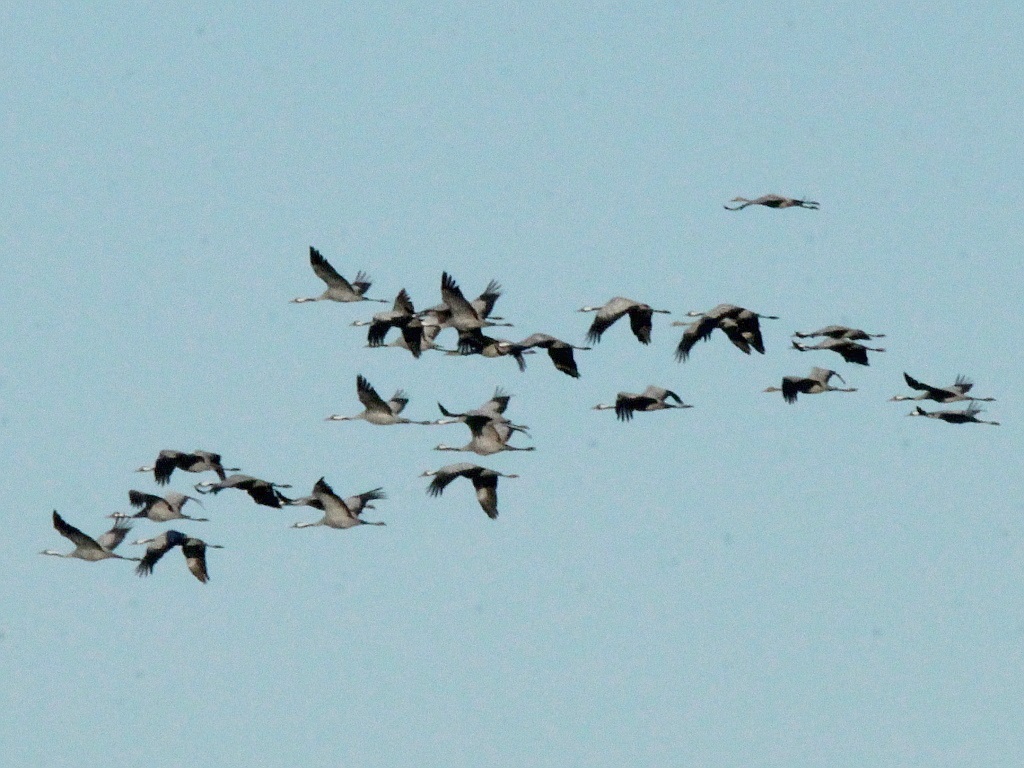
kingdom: Animalia
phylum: Chordata
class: Aves
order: Gruiformes
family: Gruidae
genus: Grus
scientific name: Grus grus
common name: Common crane
